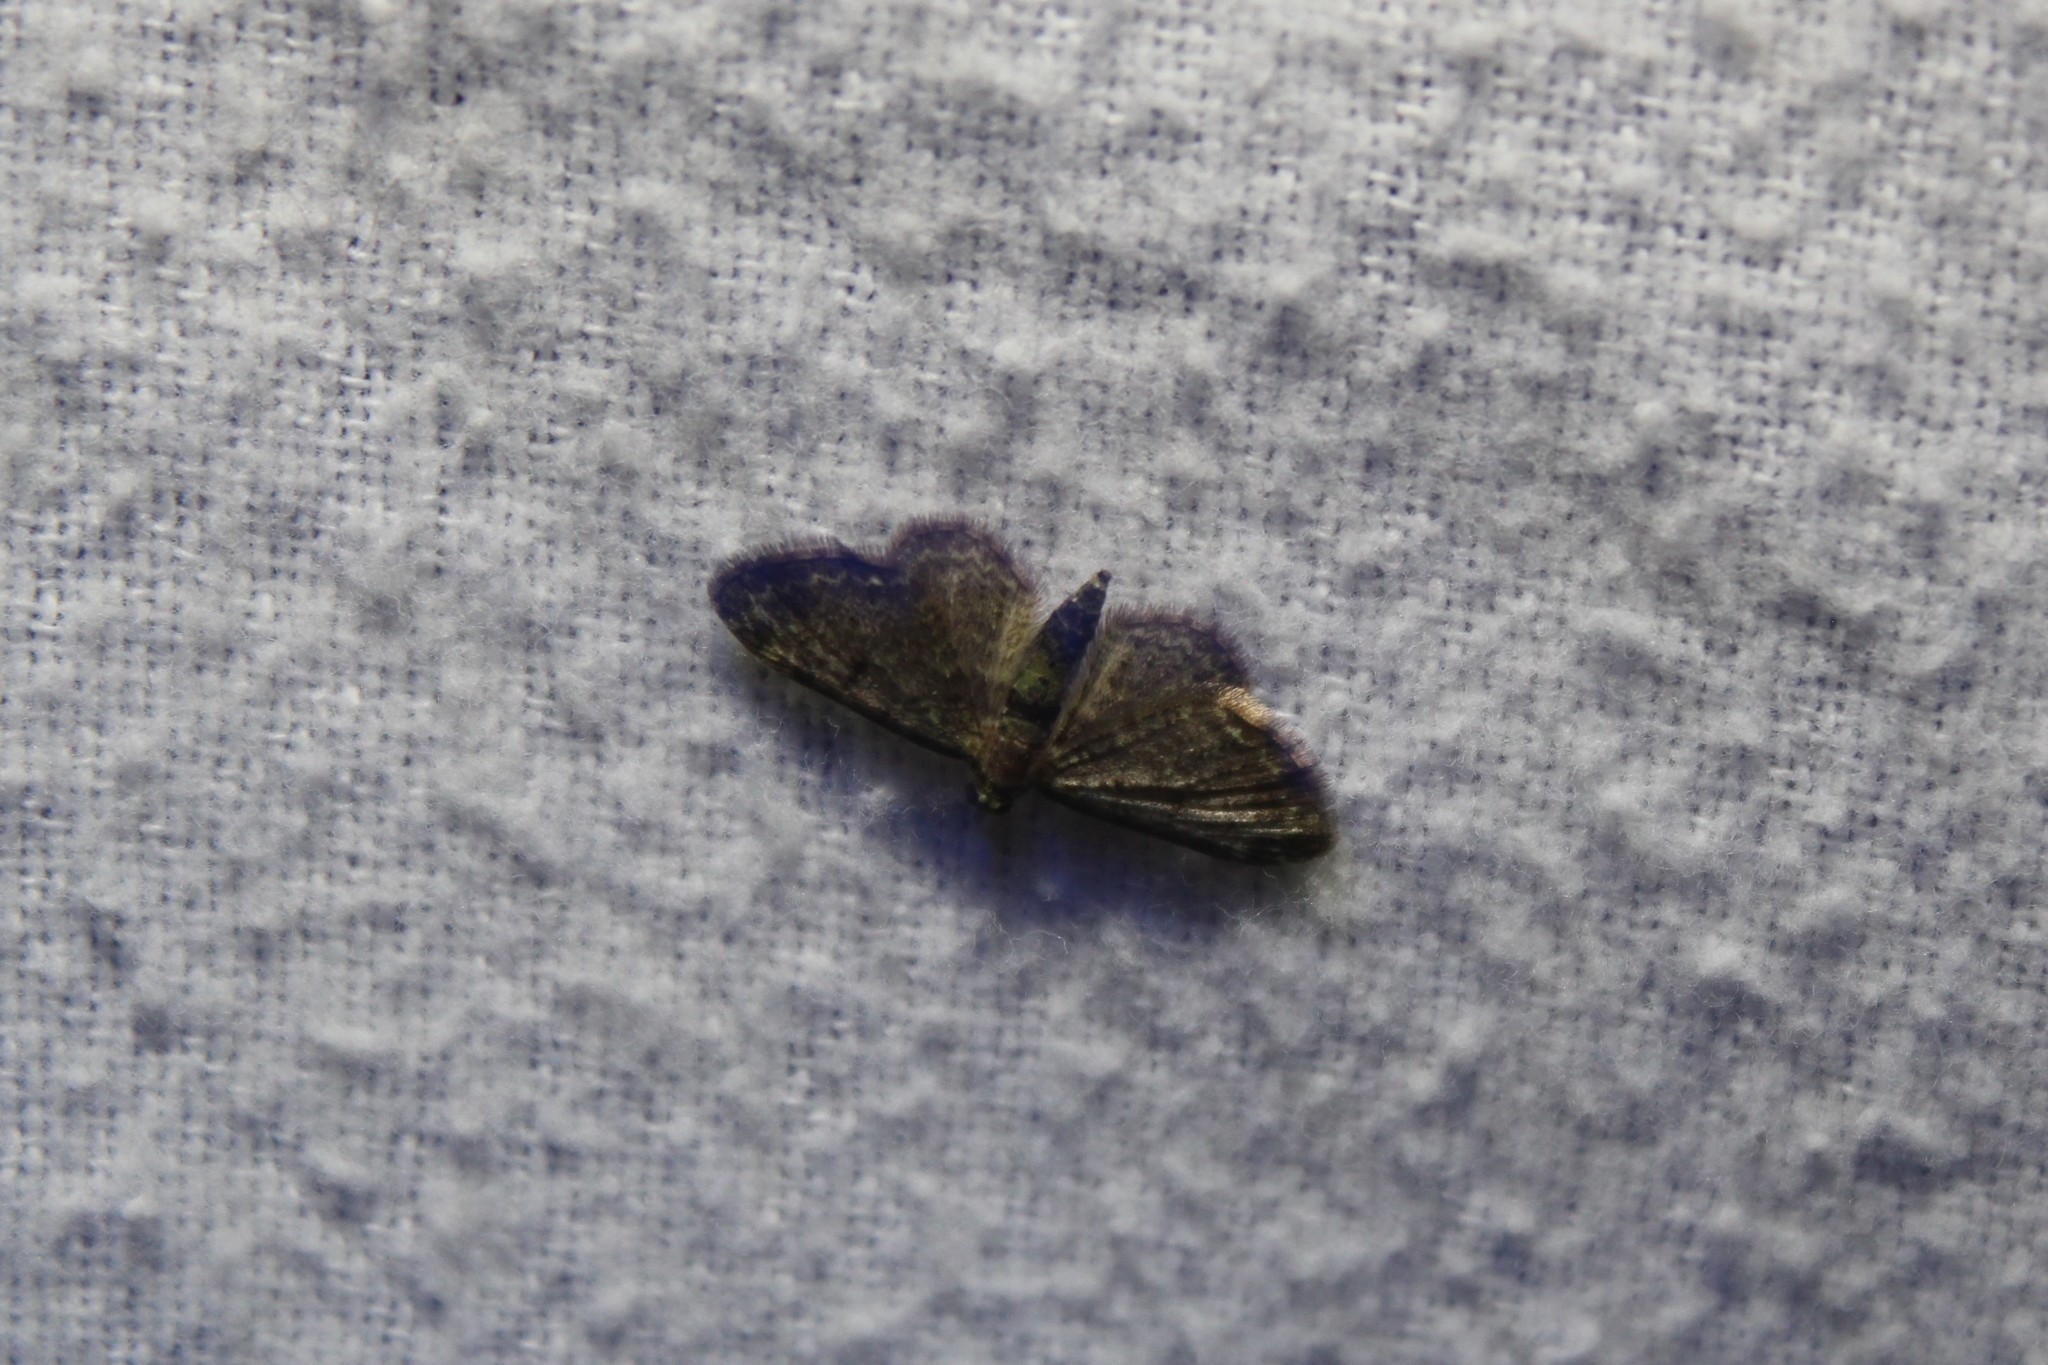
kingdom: Animalia
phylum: Arthropoda
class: Insecta
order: Lepidoptera
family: Geometridae
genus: Pasiphila
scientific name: Pasiphila rectangulata
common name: Green pug
